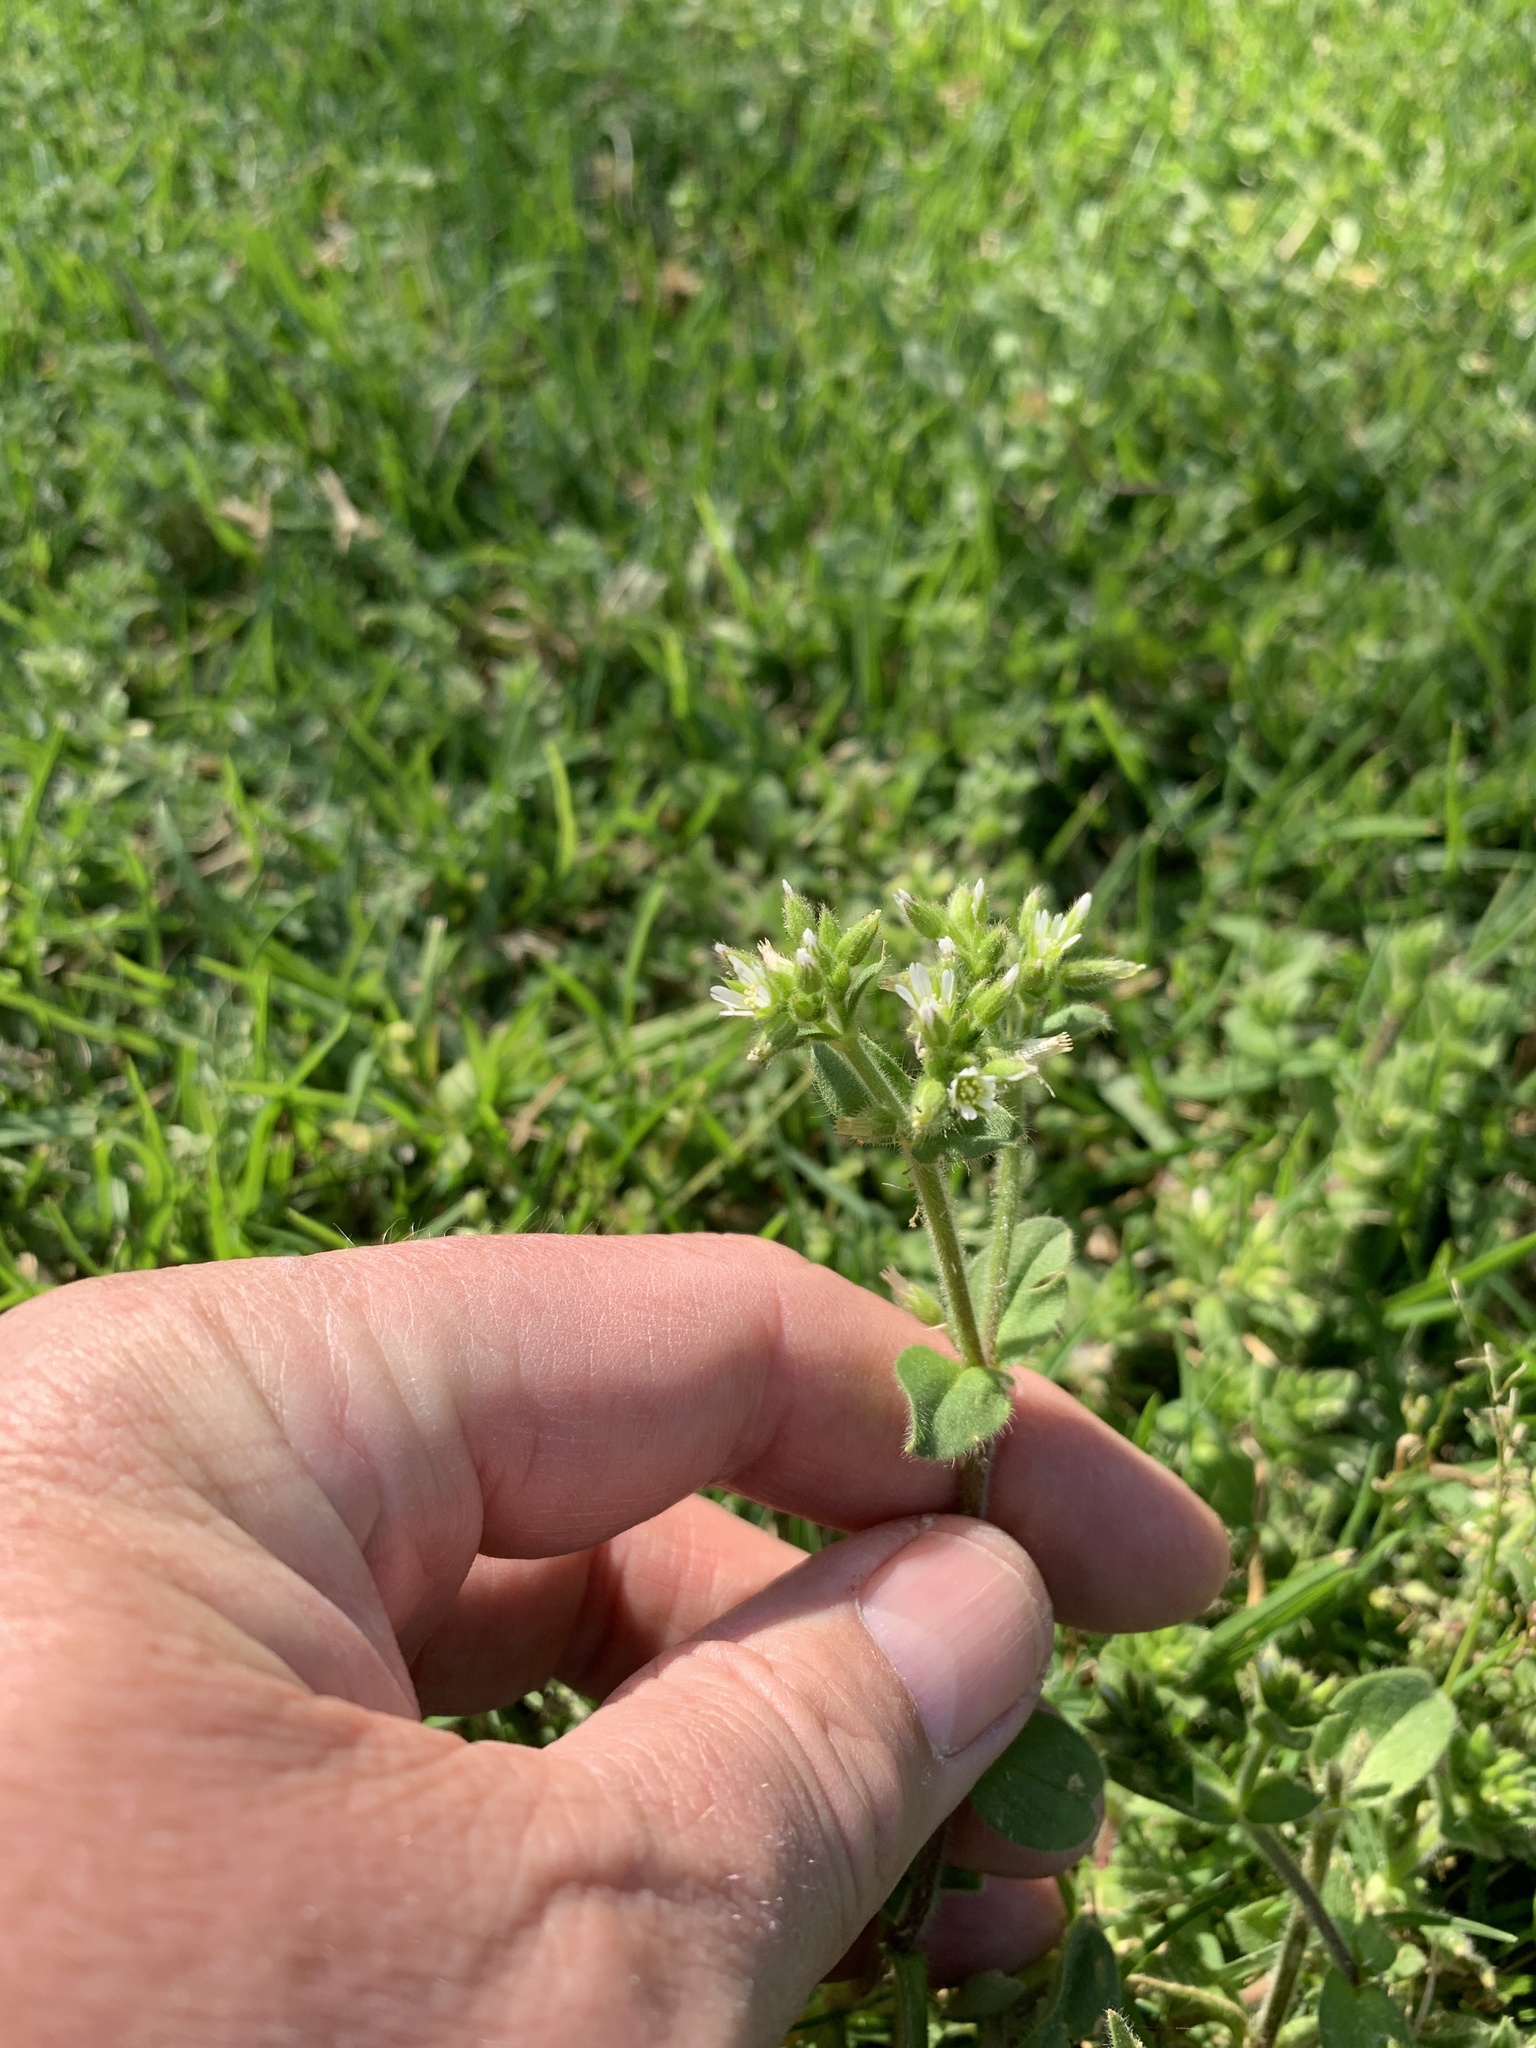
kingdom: Plantae
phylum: Tracheophyta
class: Magnoliopsida
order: Caryophyllales
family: Caryophyllaceae
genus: Cerastium
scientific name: Cerastium glomeratum
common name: Sticky chickweed
